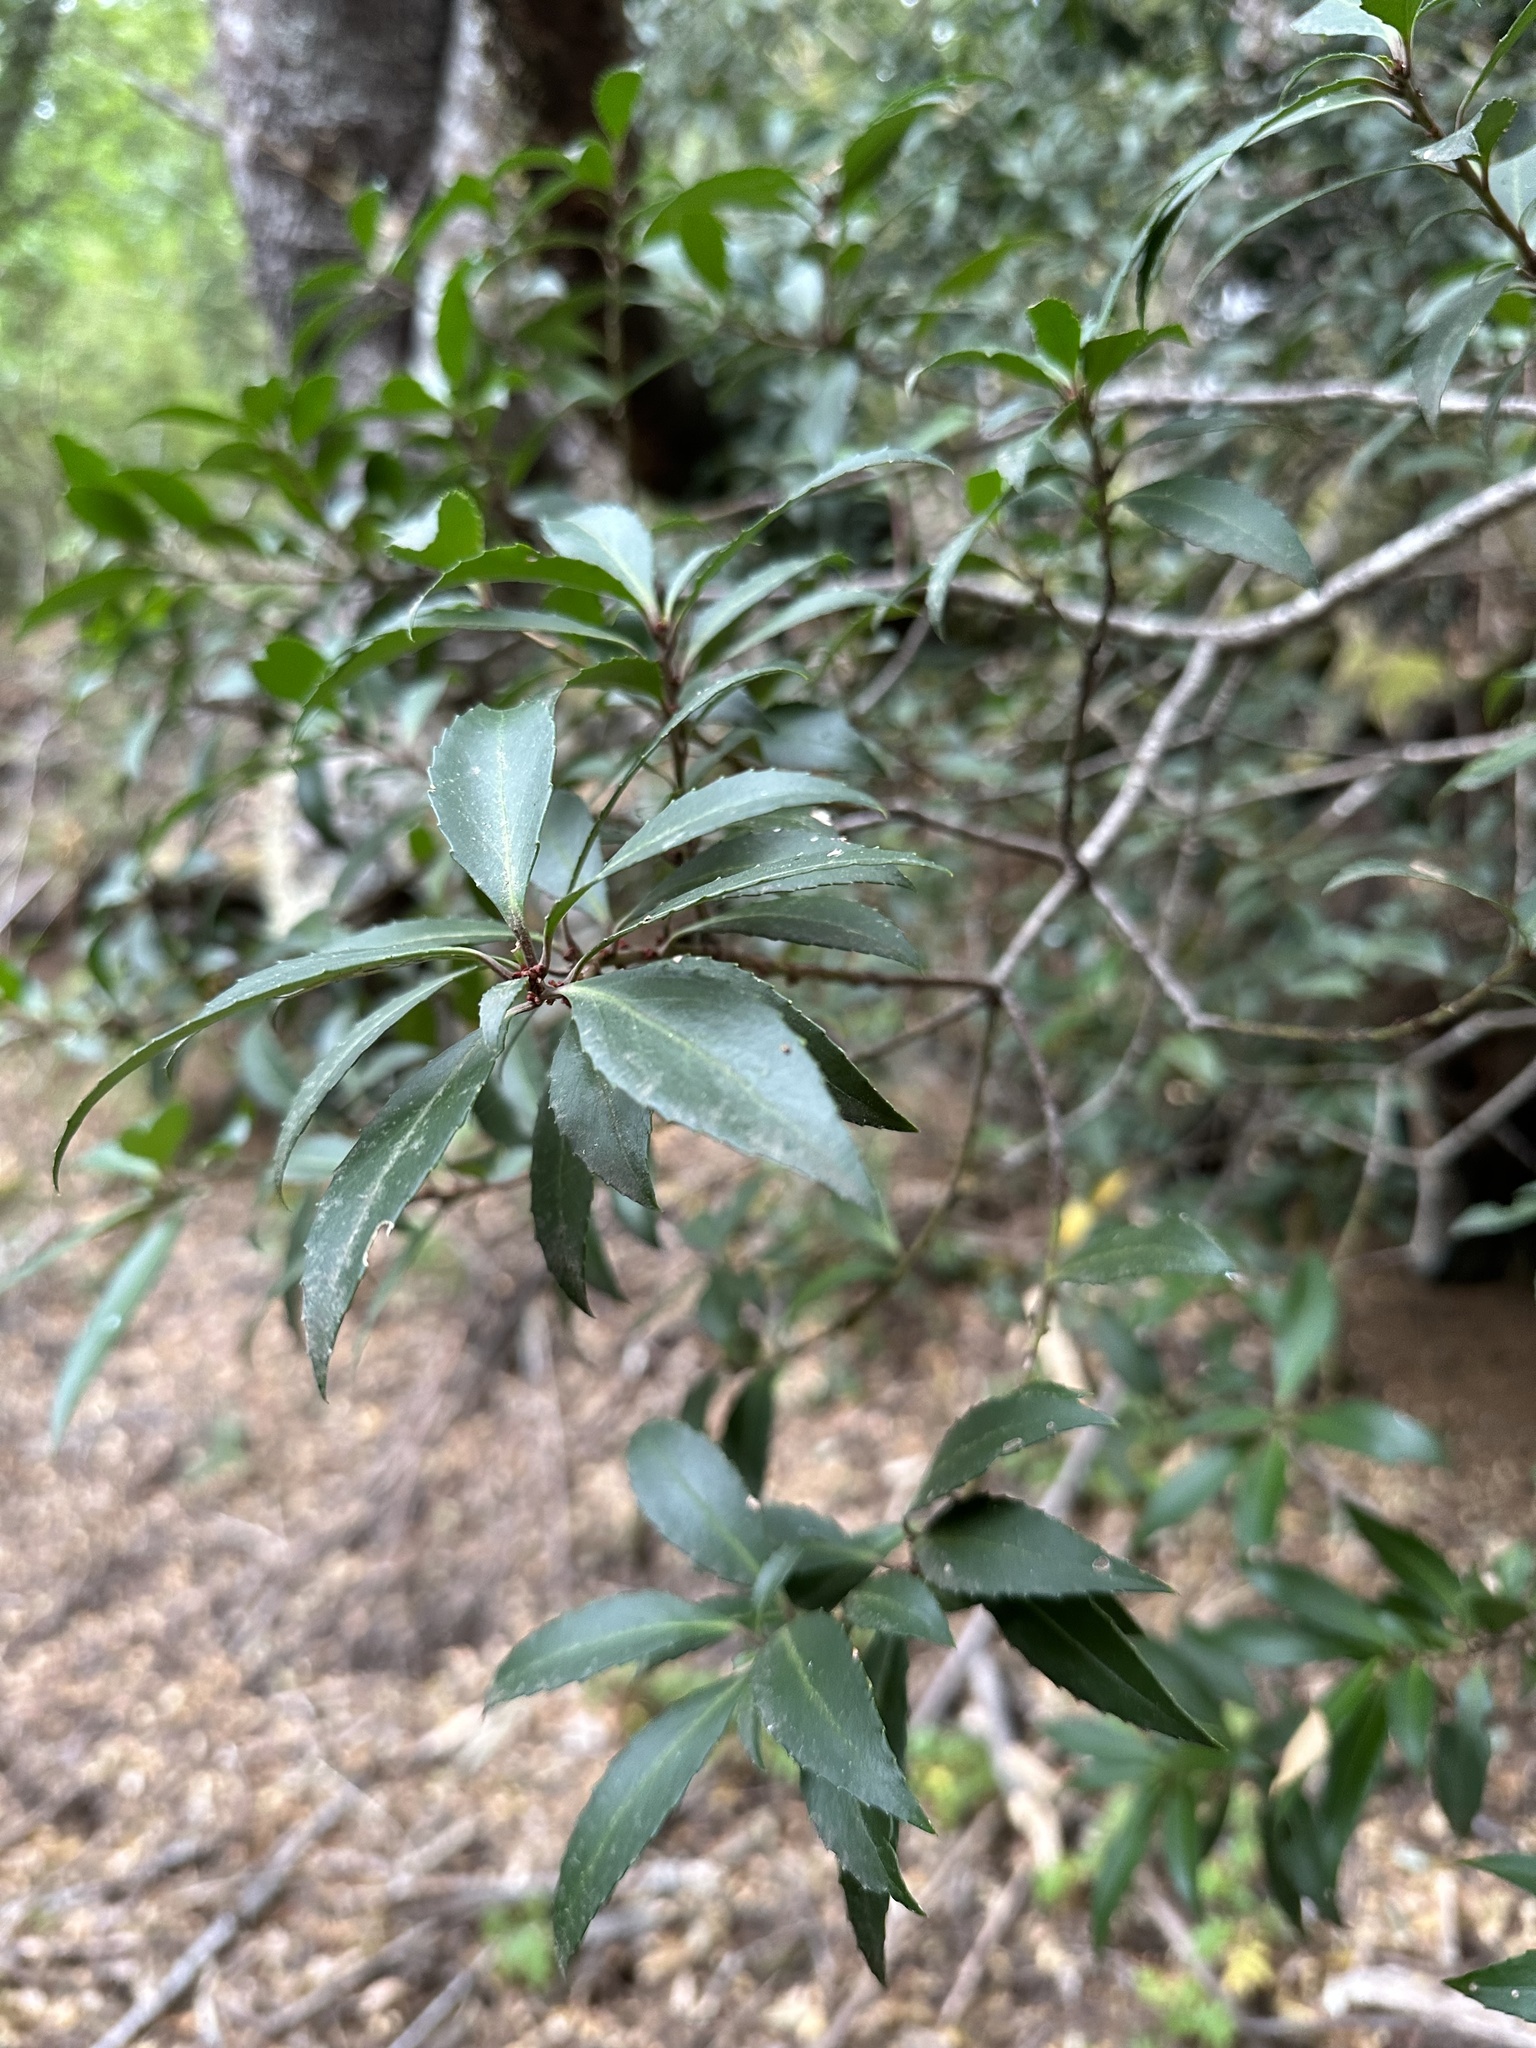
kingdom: Plantae
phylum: Tracheophyta
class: Magnoliopsida
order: Celastrales
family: Celastraceae
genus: Maytenus
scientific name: Maytenus magellanica
